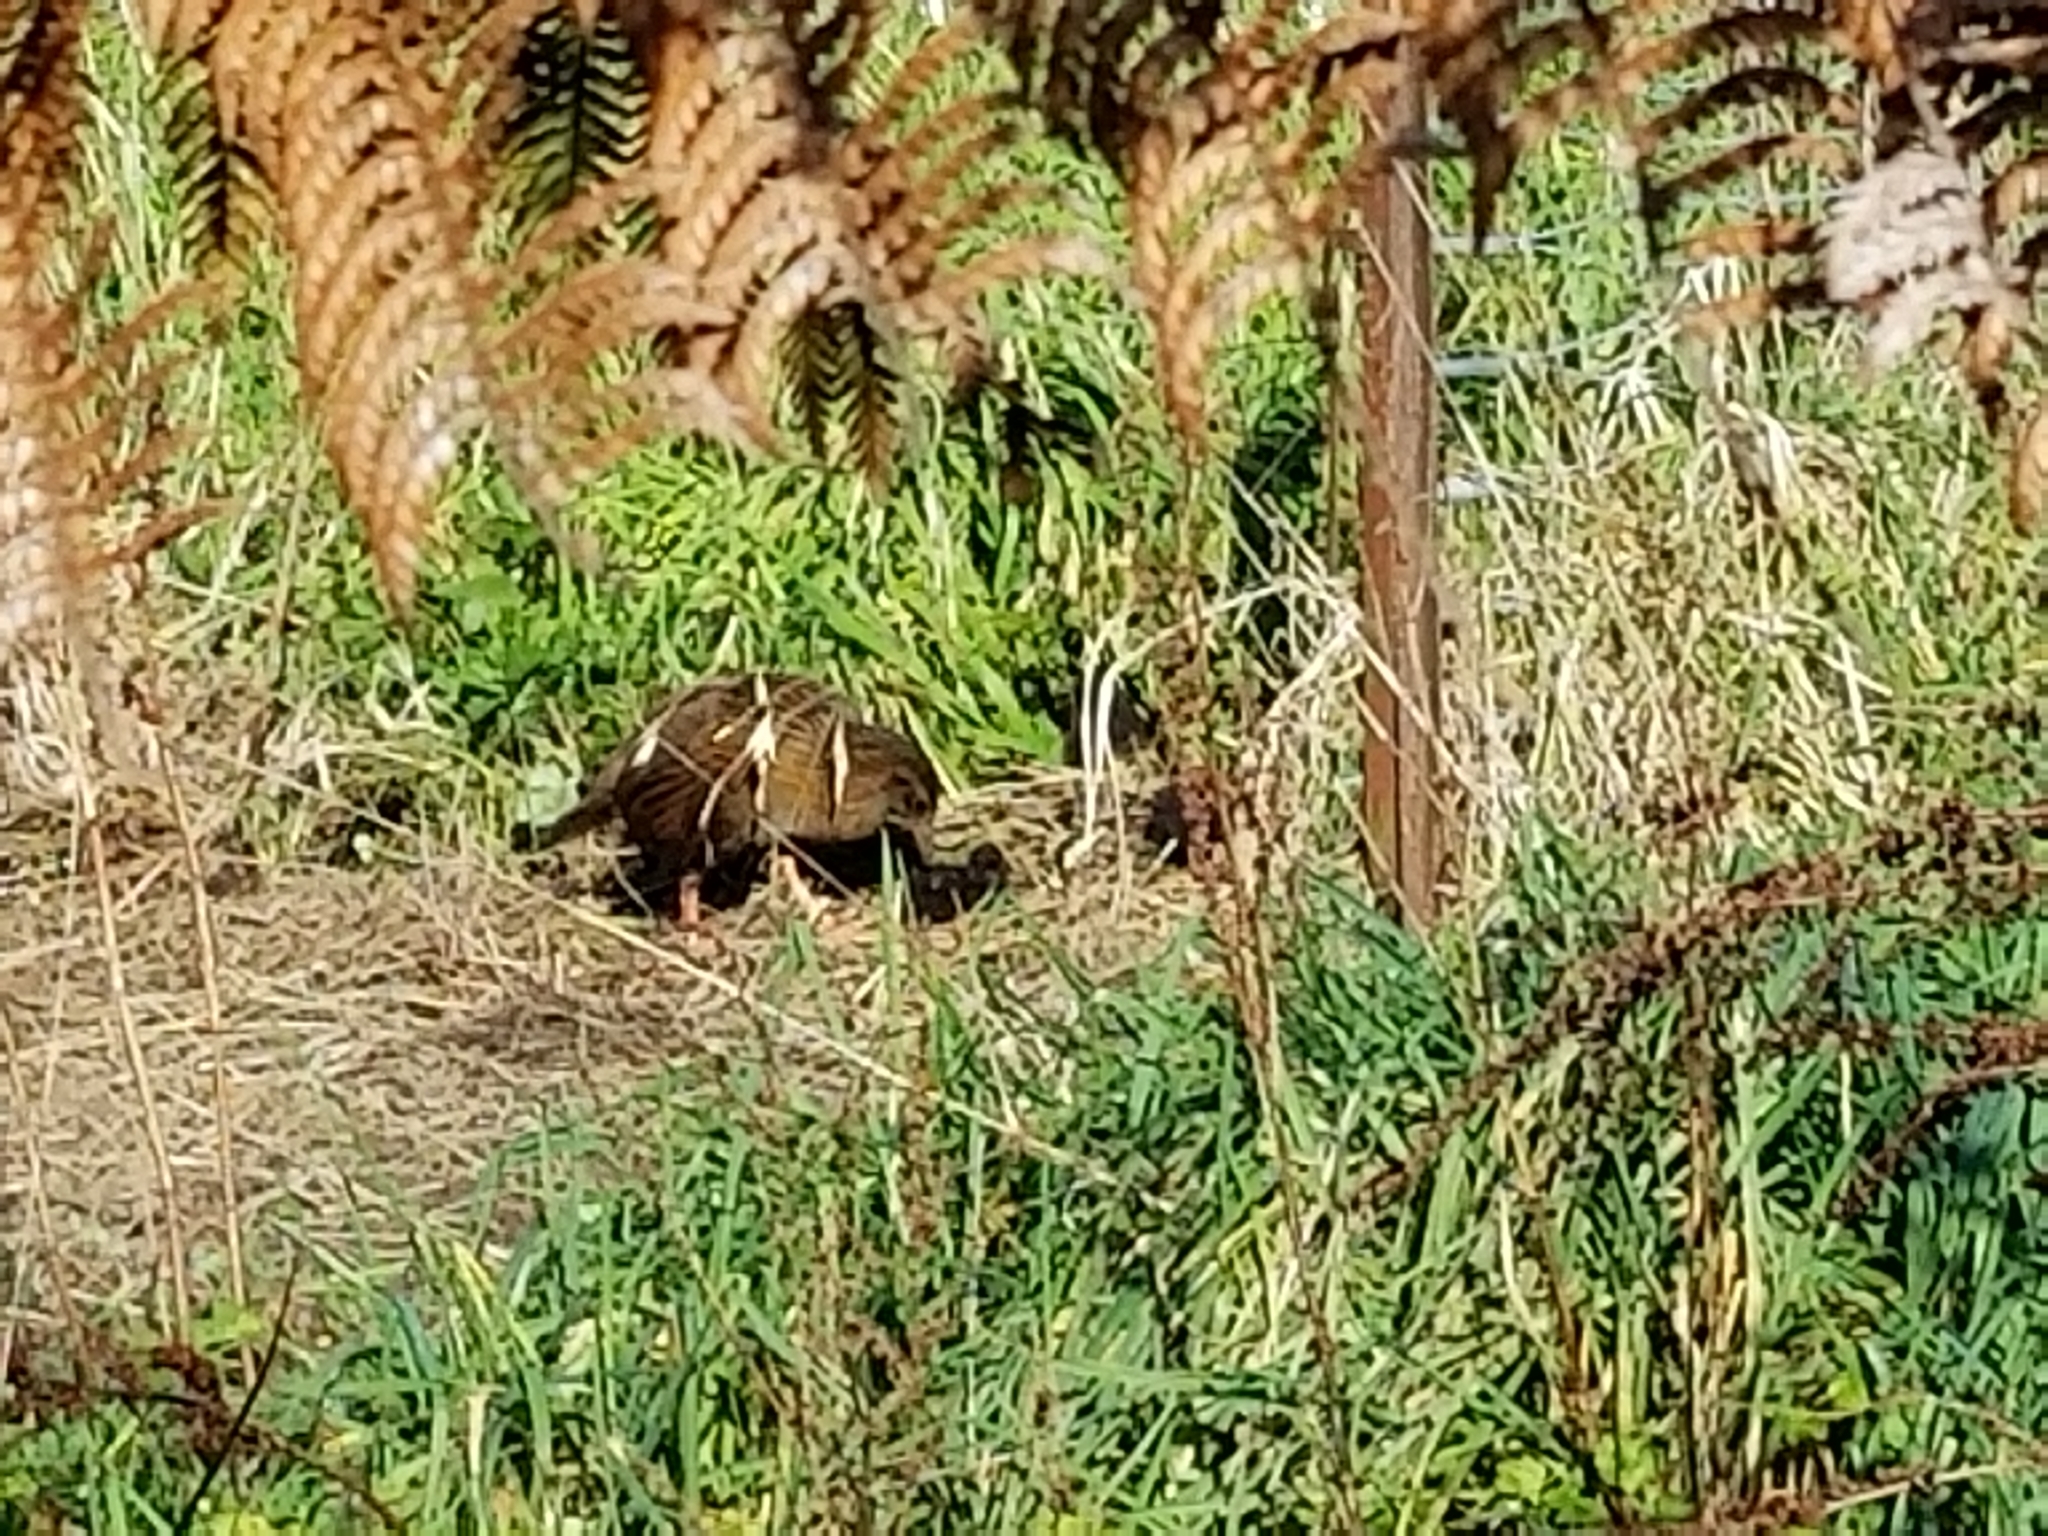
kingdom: Animalia
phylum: Chordata
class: Aves
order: Gruiformes
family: Rallidae
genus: Gallirallus
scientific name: Gallirallus australis
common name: Weka
